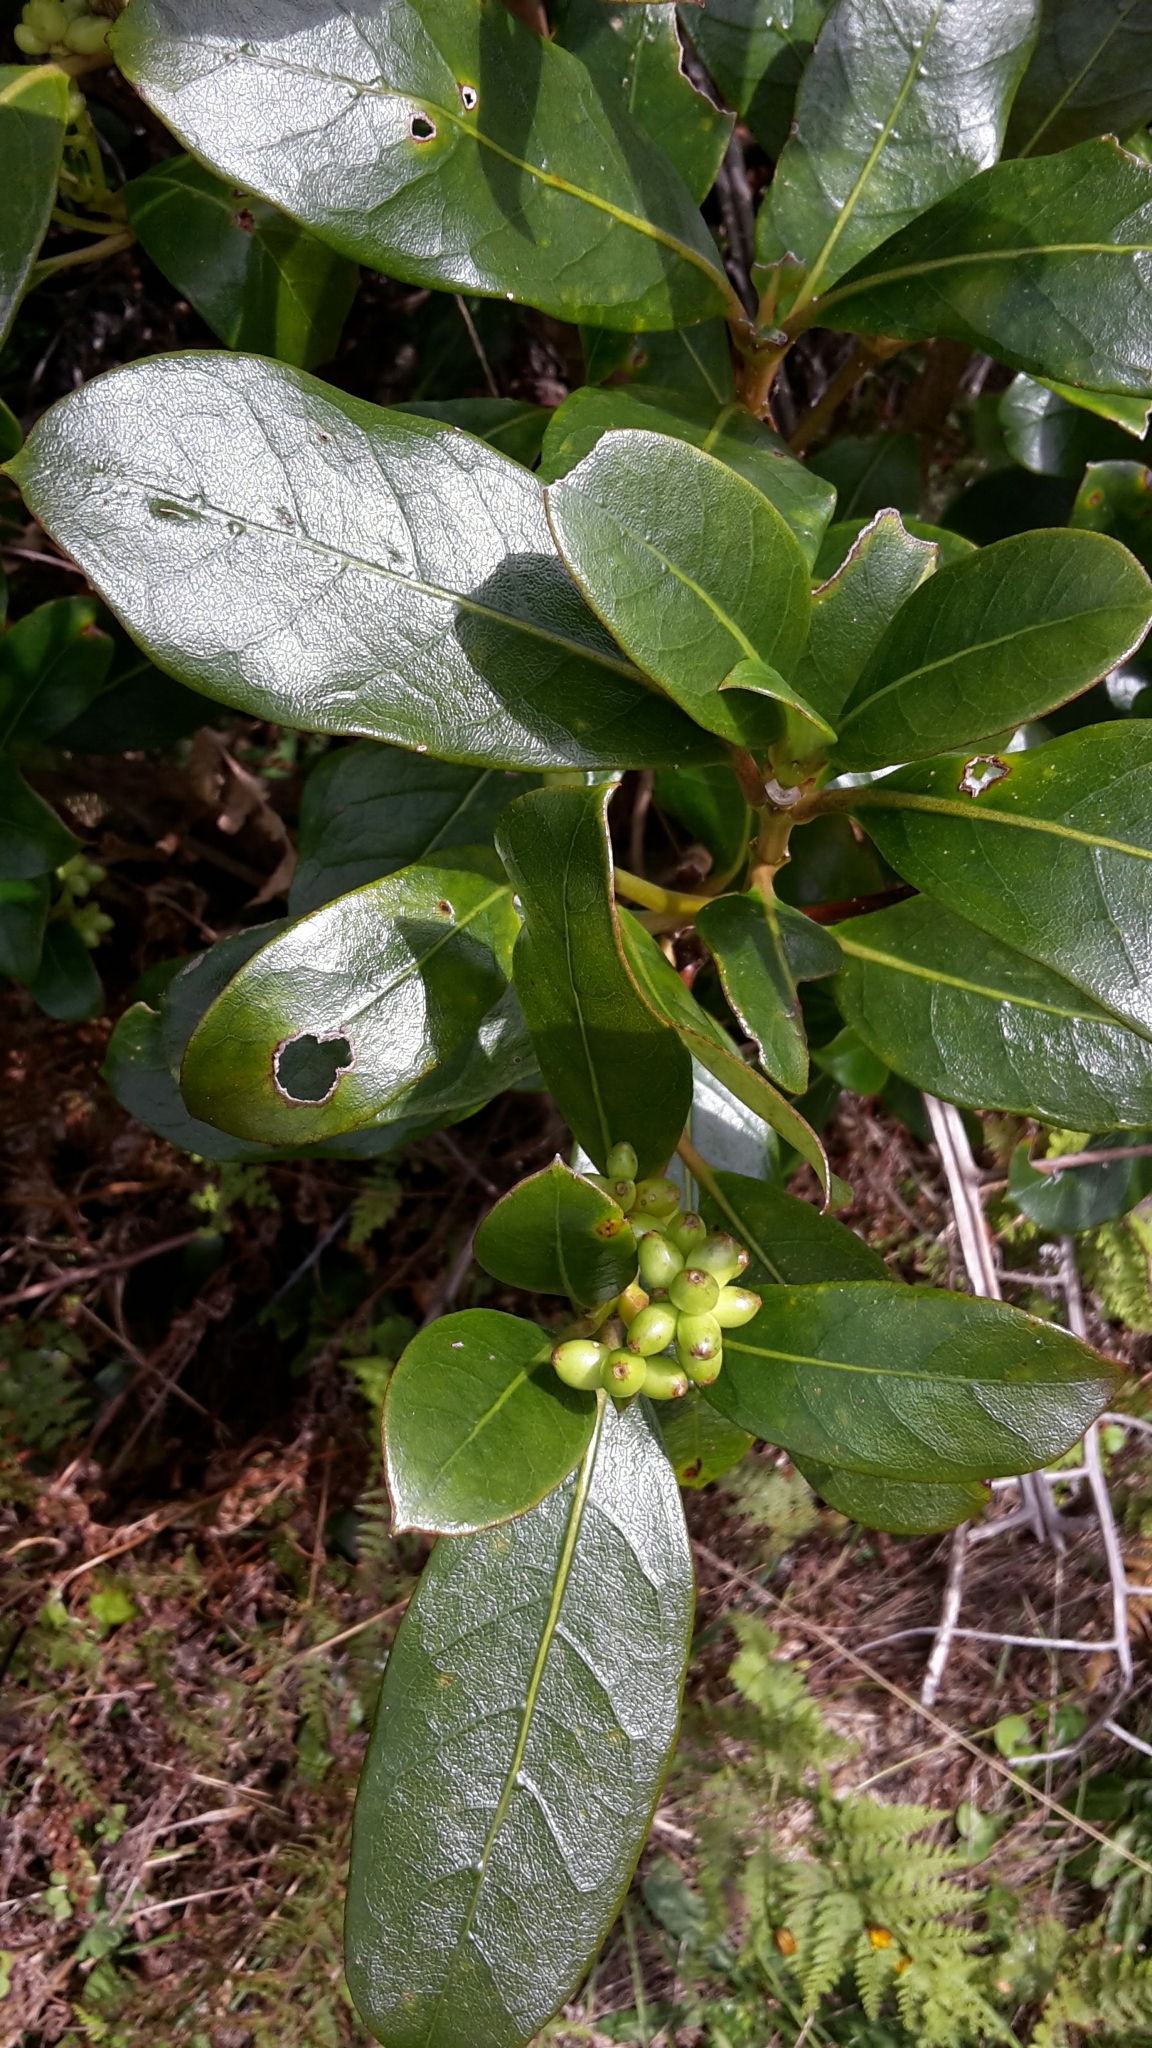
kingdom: Plantae
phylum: Tracheophyta
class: Magnoliopsida
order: Gentianales
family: Rubiaceae
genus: Coprosma
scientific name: Coprosma lucida
